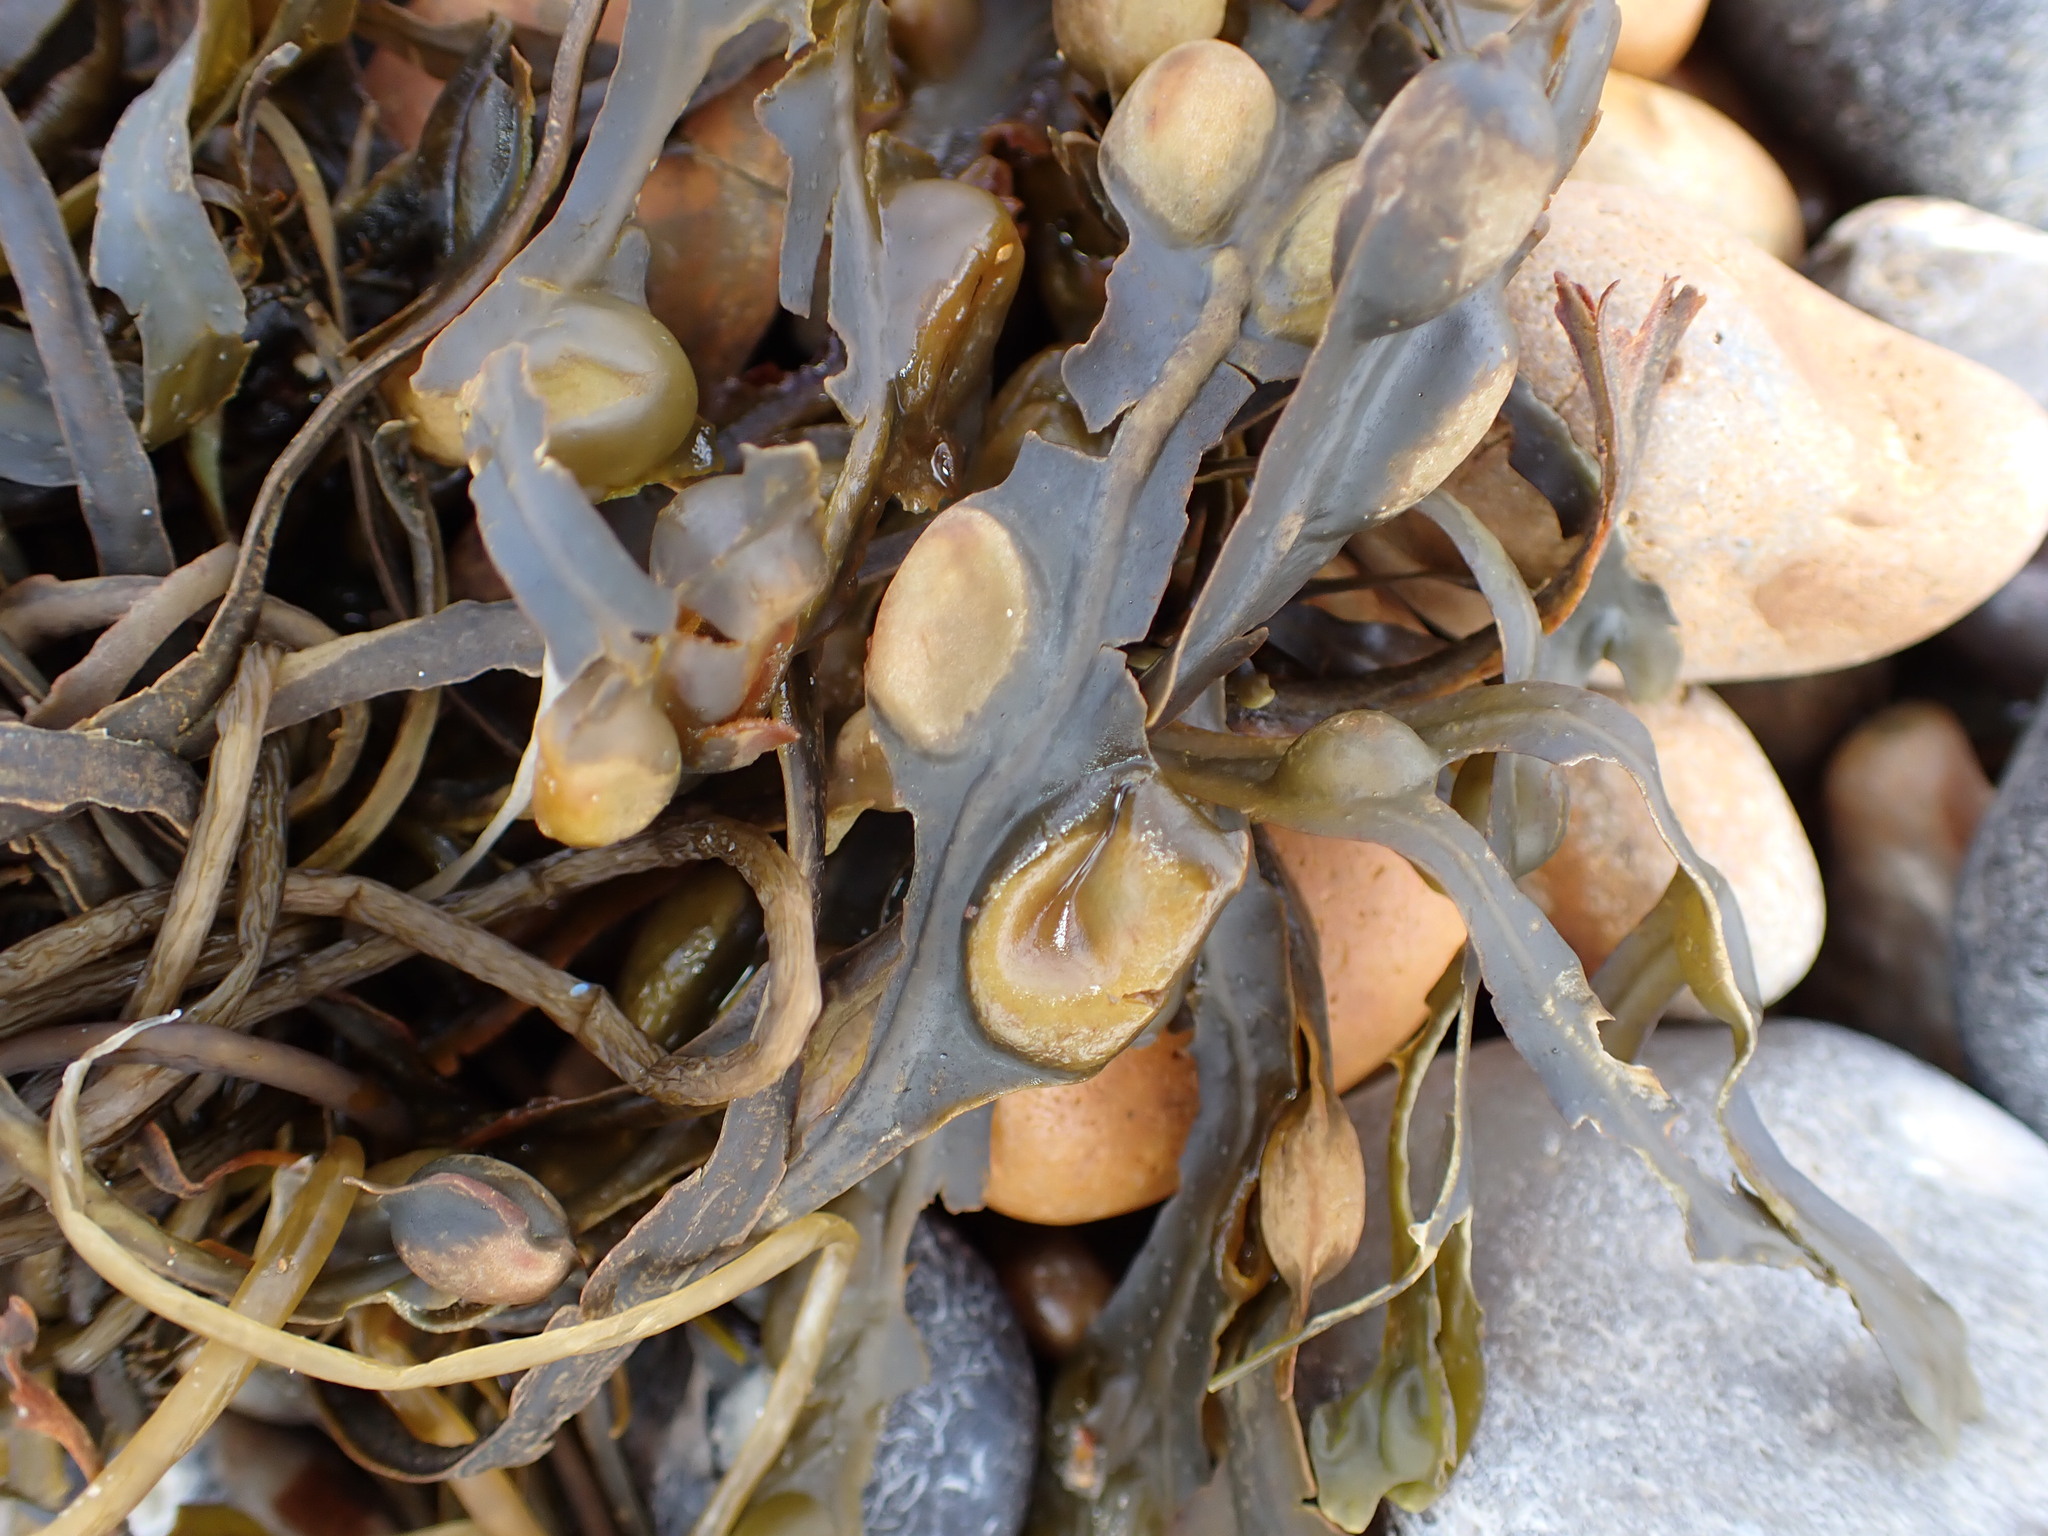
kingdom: Chromista
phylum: Ochrophyta
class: Phaeophyceae
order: Fucales
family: Fucaceae
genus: Fucus
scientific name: Fucus vesiculosus
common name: Bladder wrack
